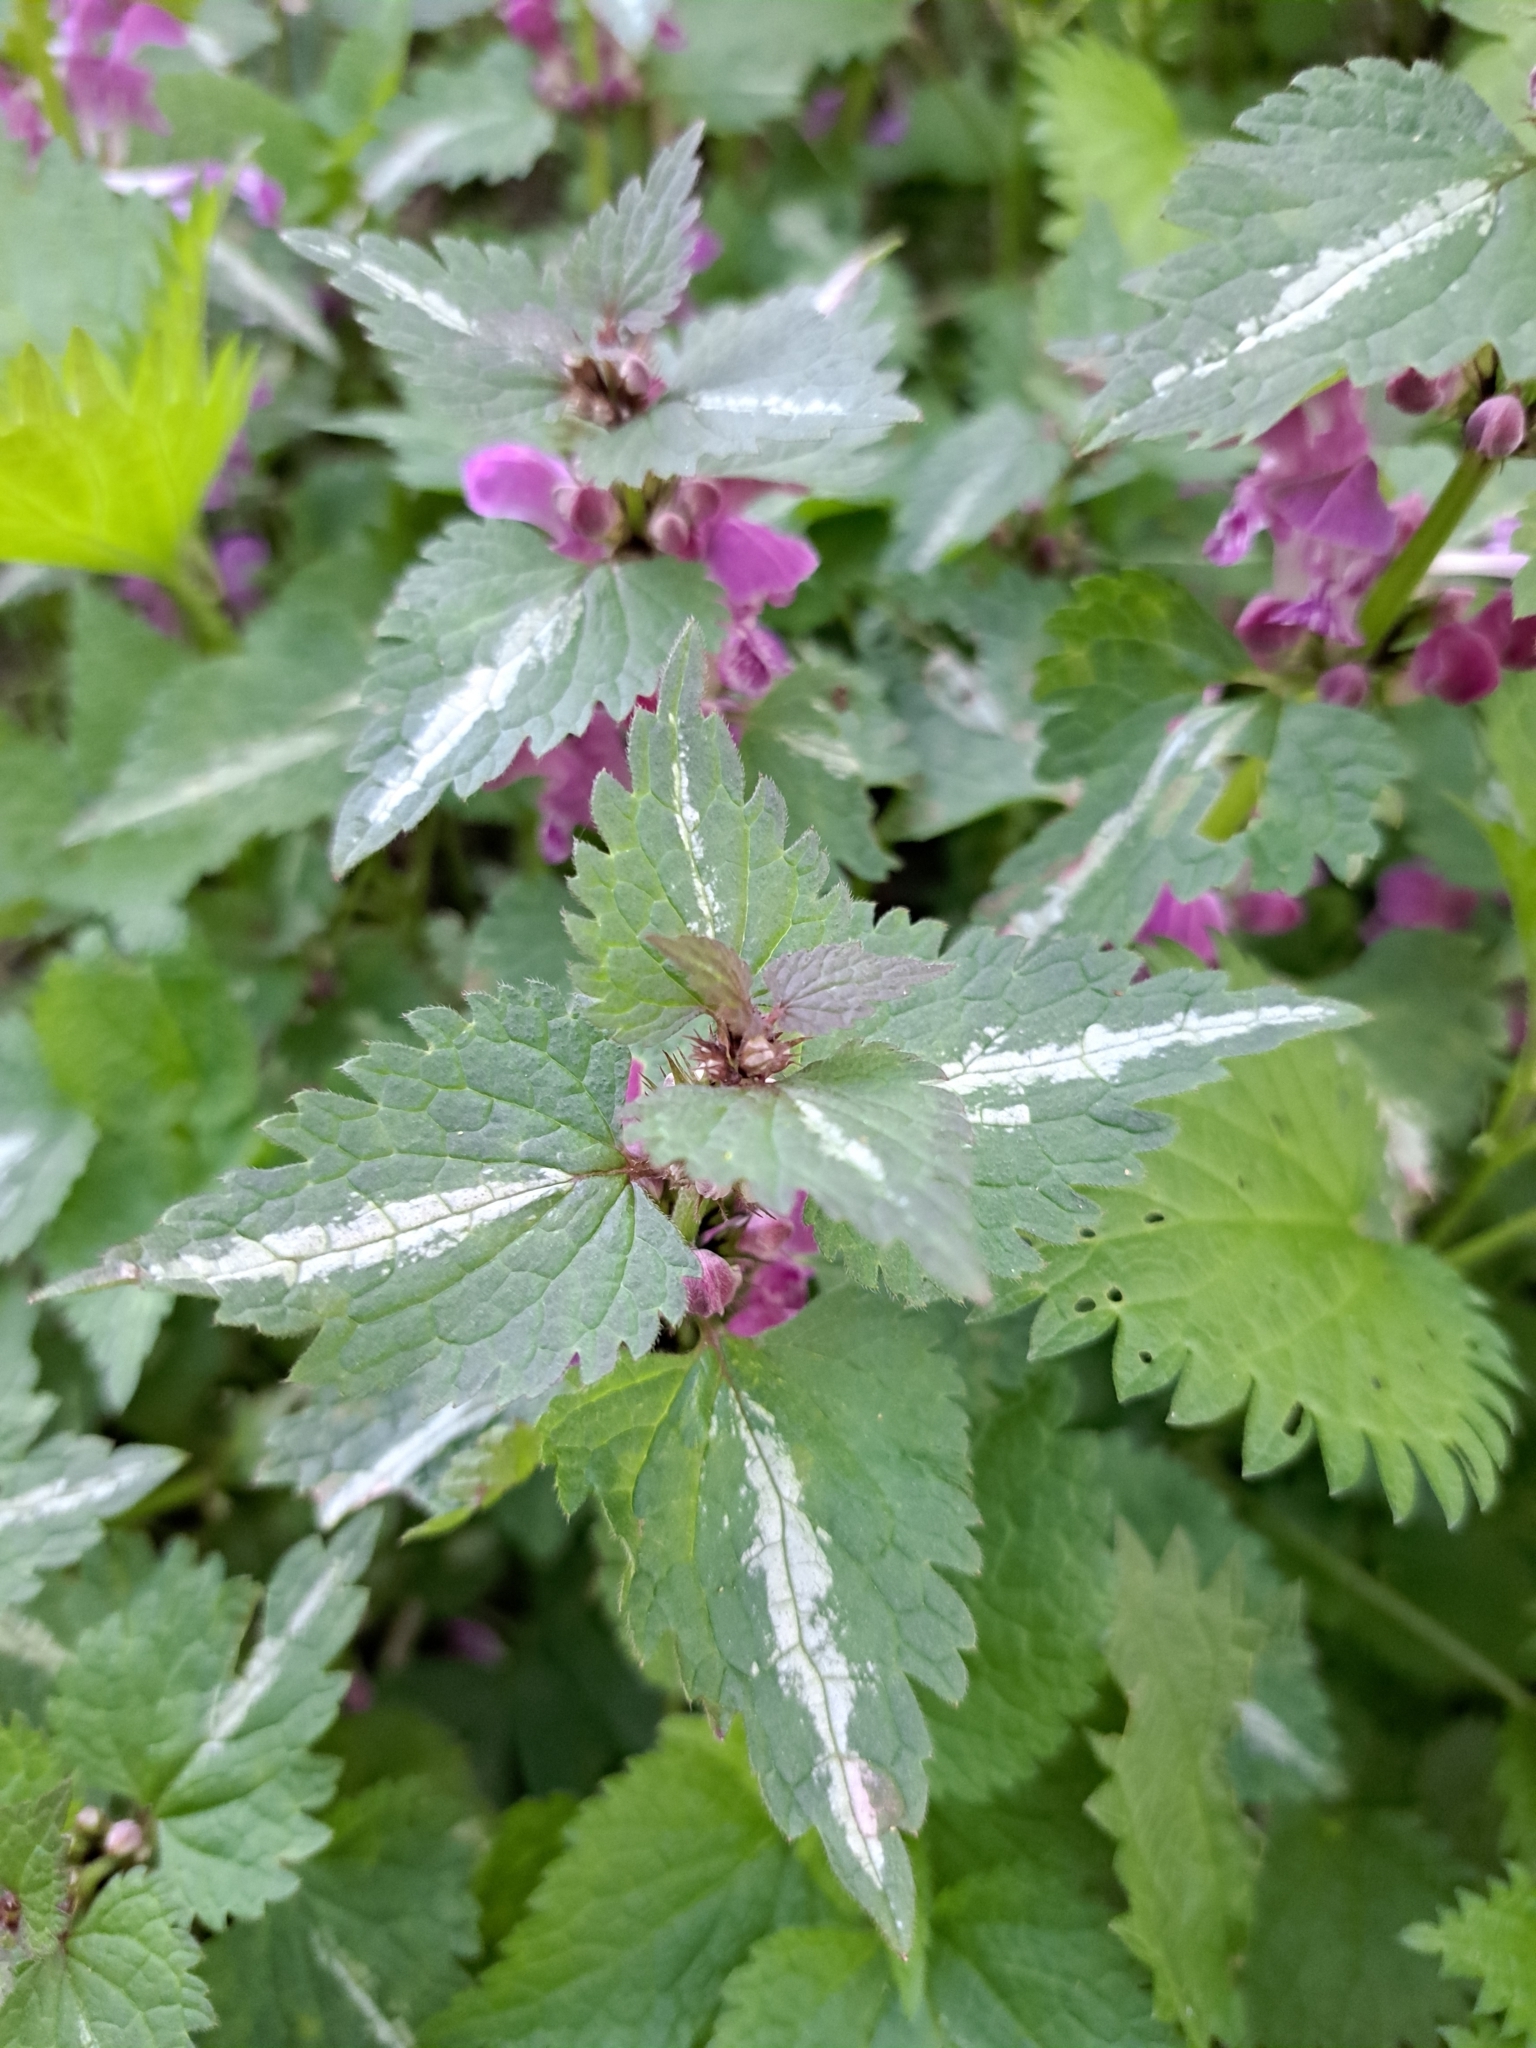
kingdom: Plantae
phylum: Tracheophyta
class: Magnoliopsida
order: Lamiales
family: Lamiaceae
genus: Lamium
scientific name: Lamium maculatum
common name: Spotted dead-nettle
